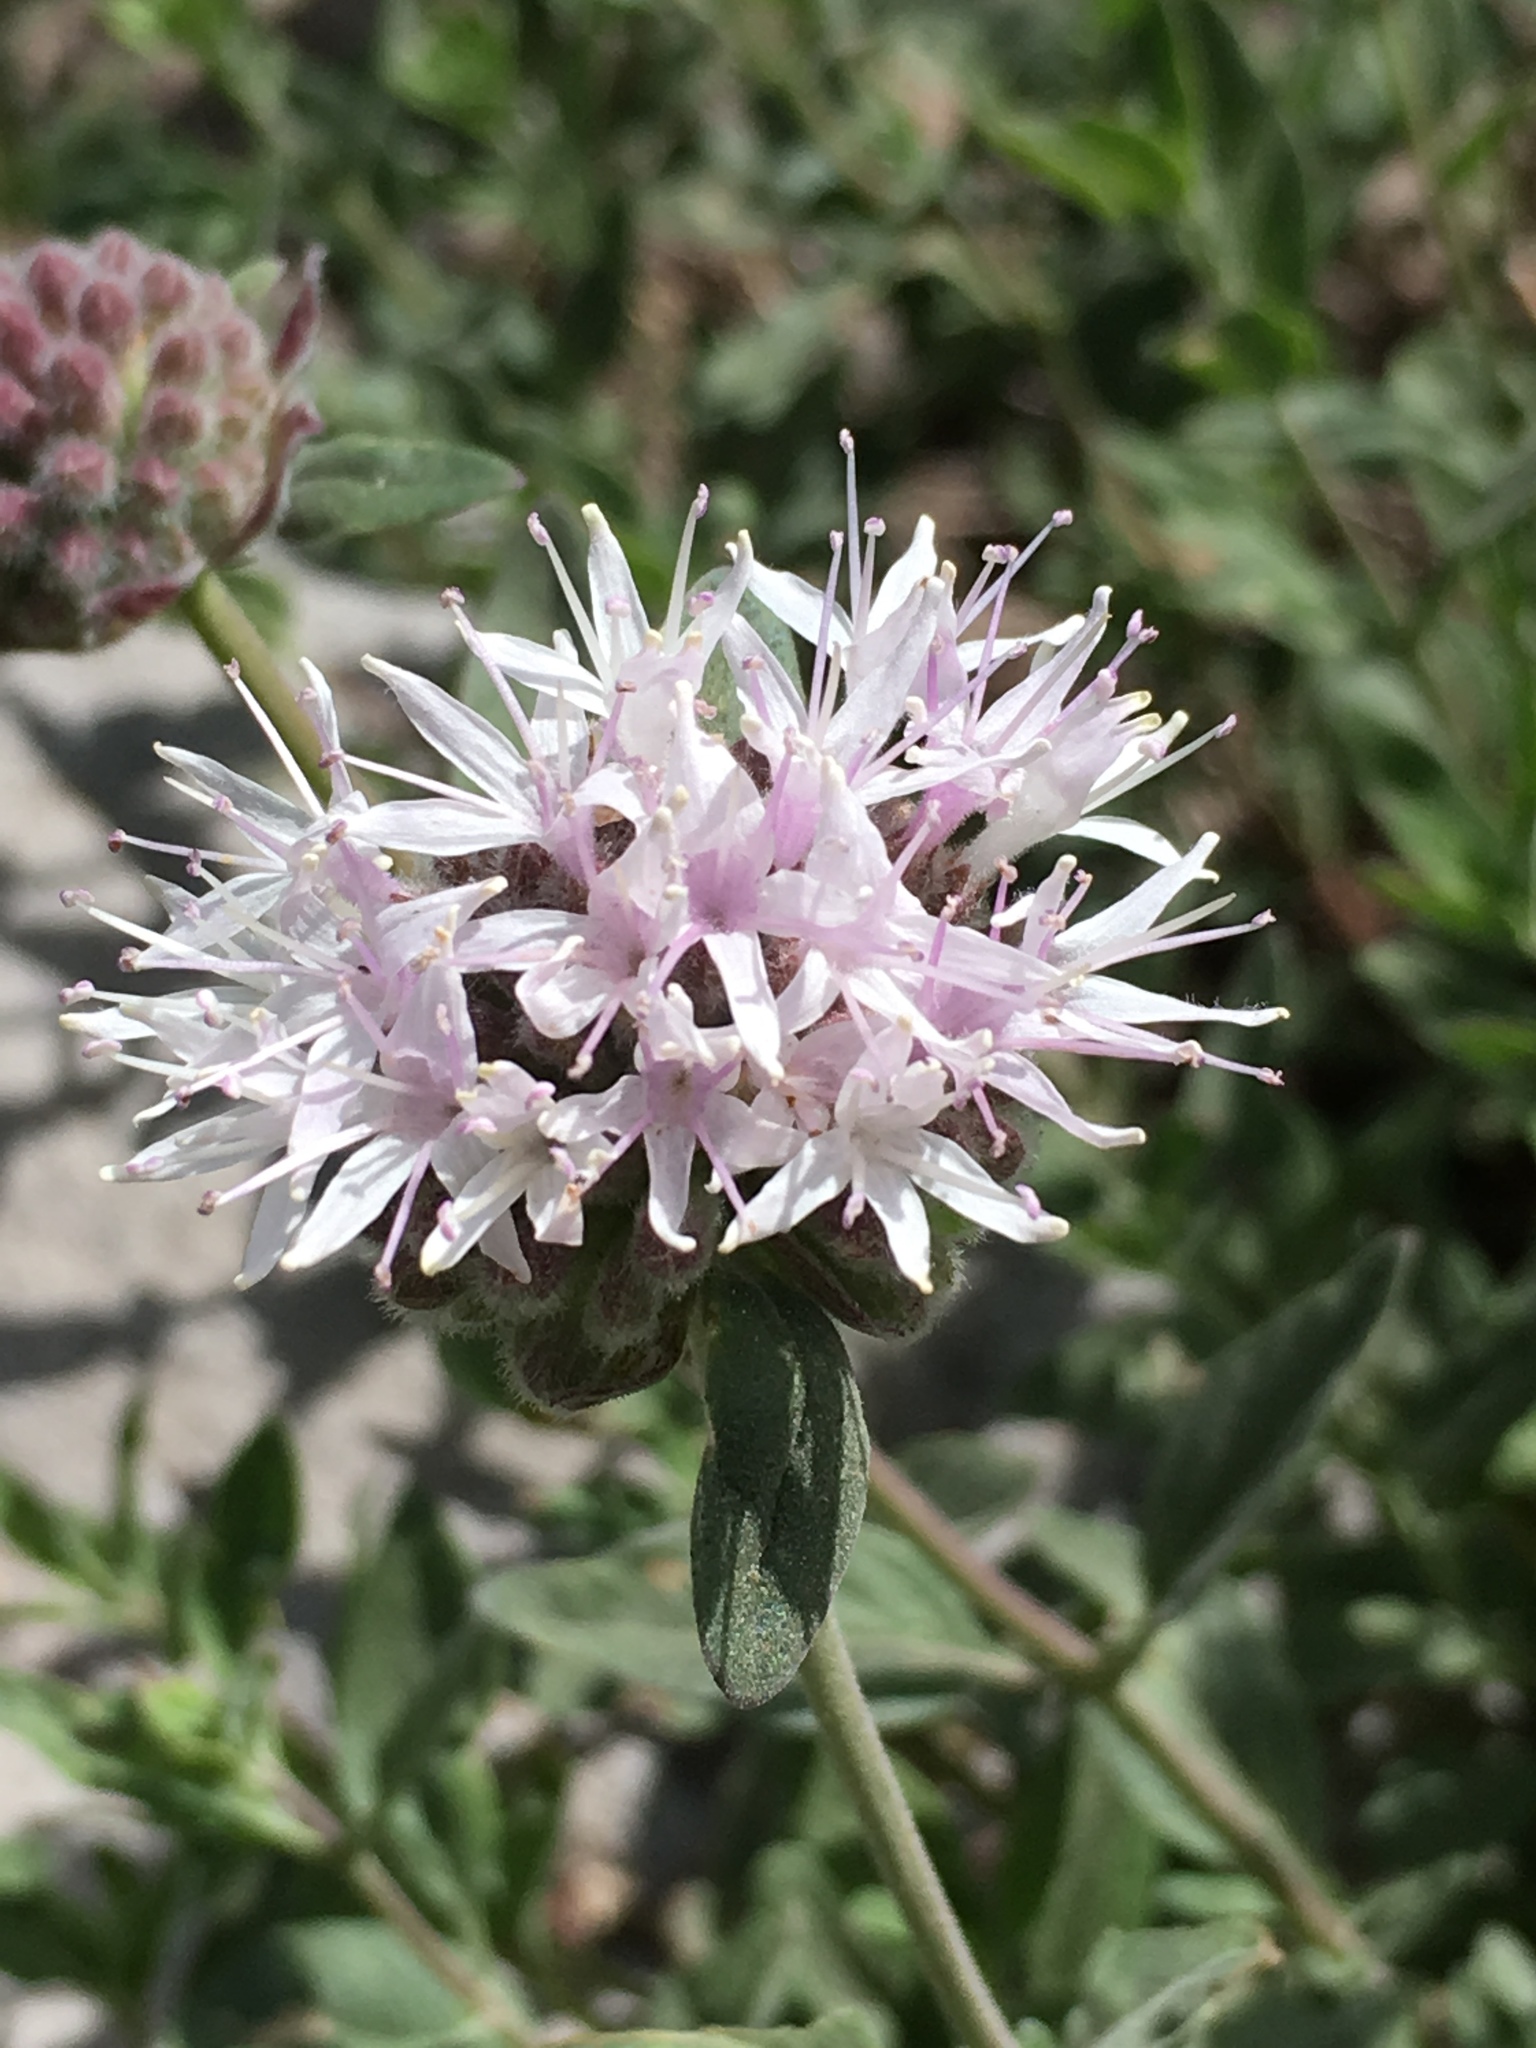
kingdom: Plantae
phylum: Tracheophyta
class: Magnoliopsida
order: Lamiales
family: Lamiaceae
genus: Monardella
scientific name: Monardella odoratissima
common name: Pacific monardella
